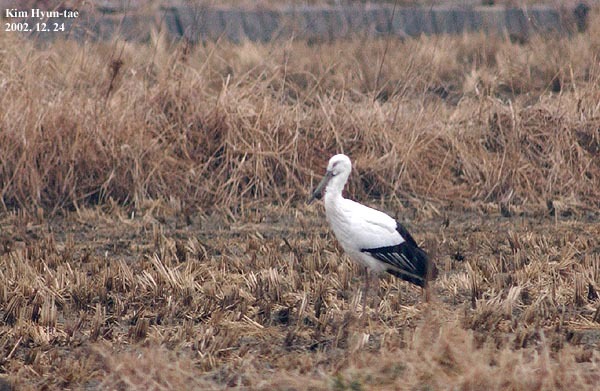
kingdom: Animalia
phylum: Chordata
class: Aves
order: Ciconiiformes
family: Ciconiidae
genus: Ciconia
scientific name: Ciconia boyciana
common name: Oriental stork
